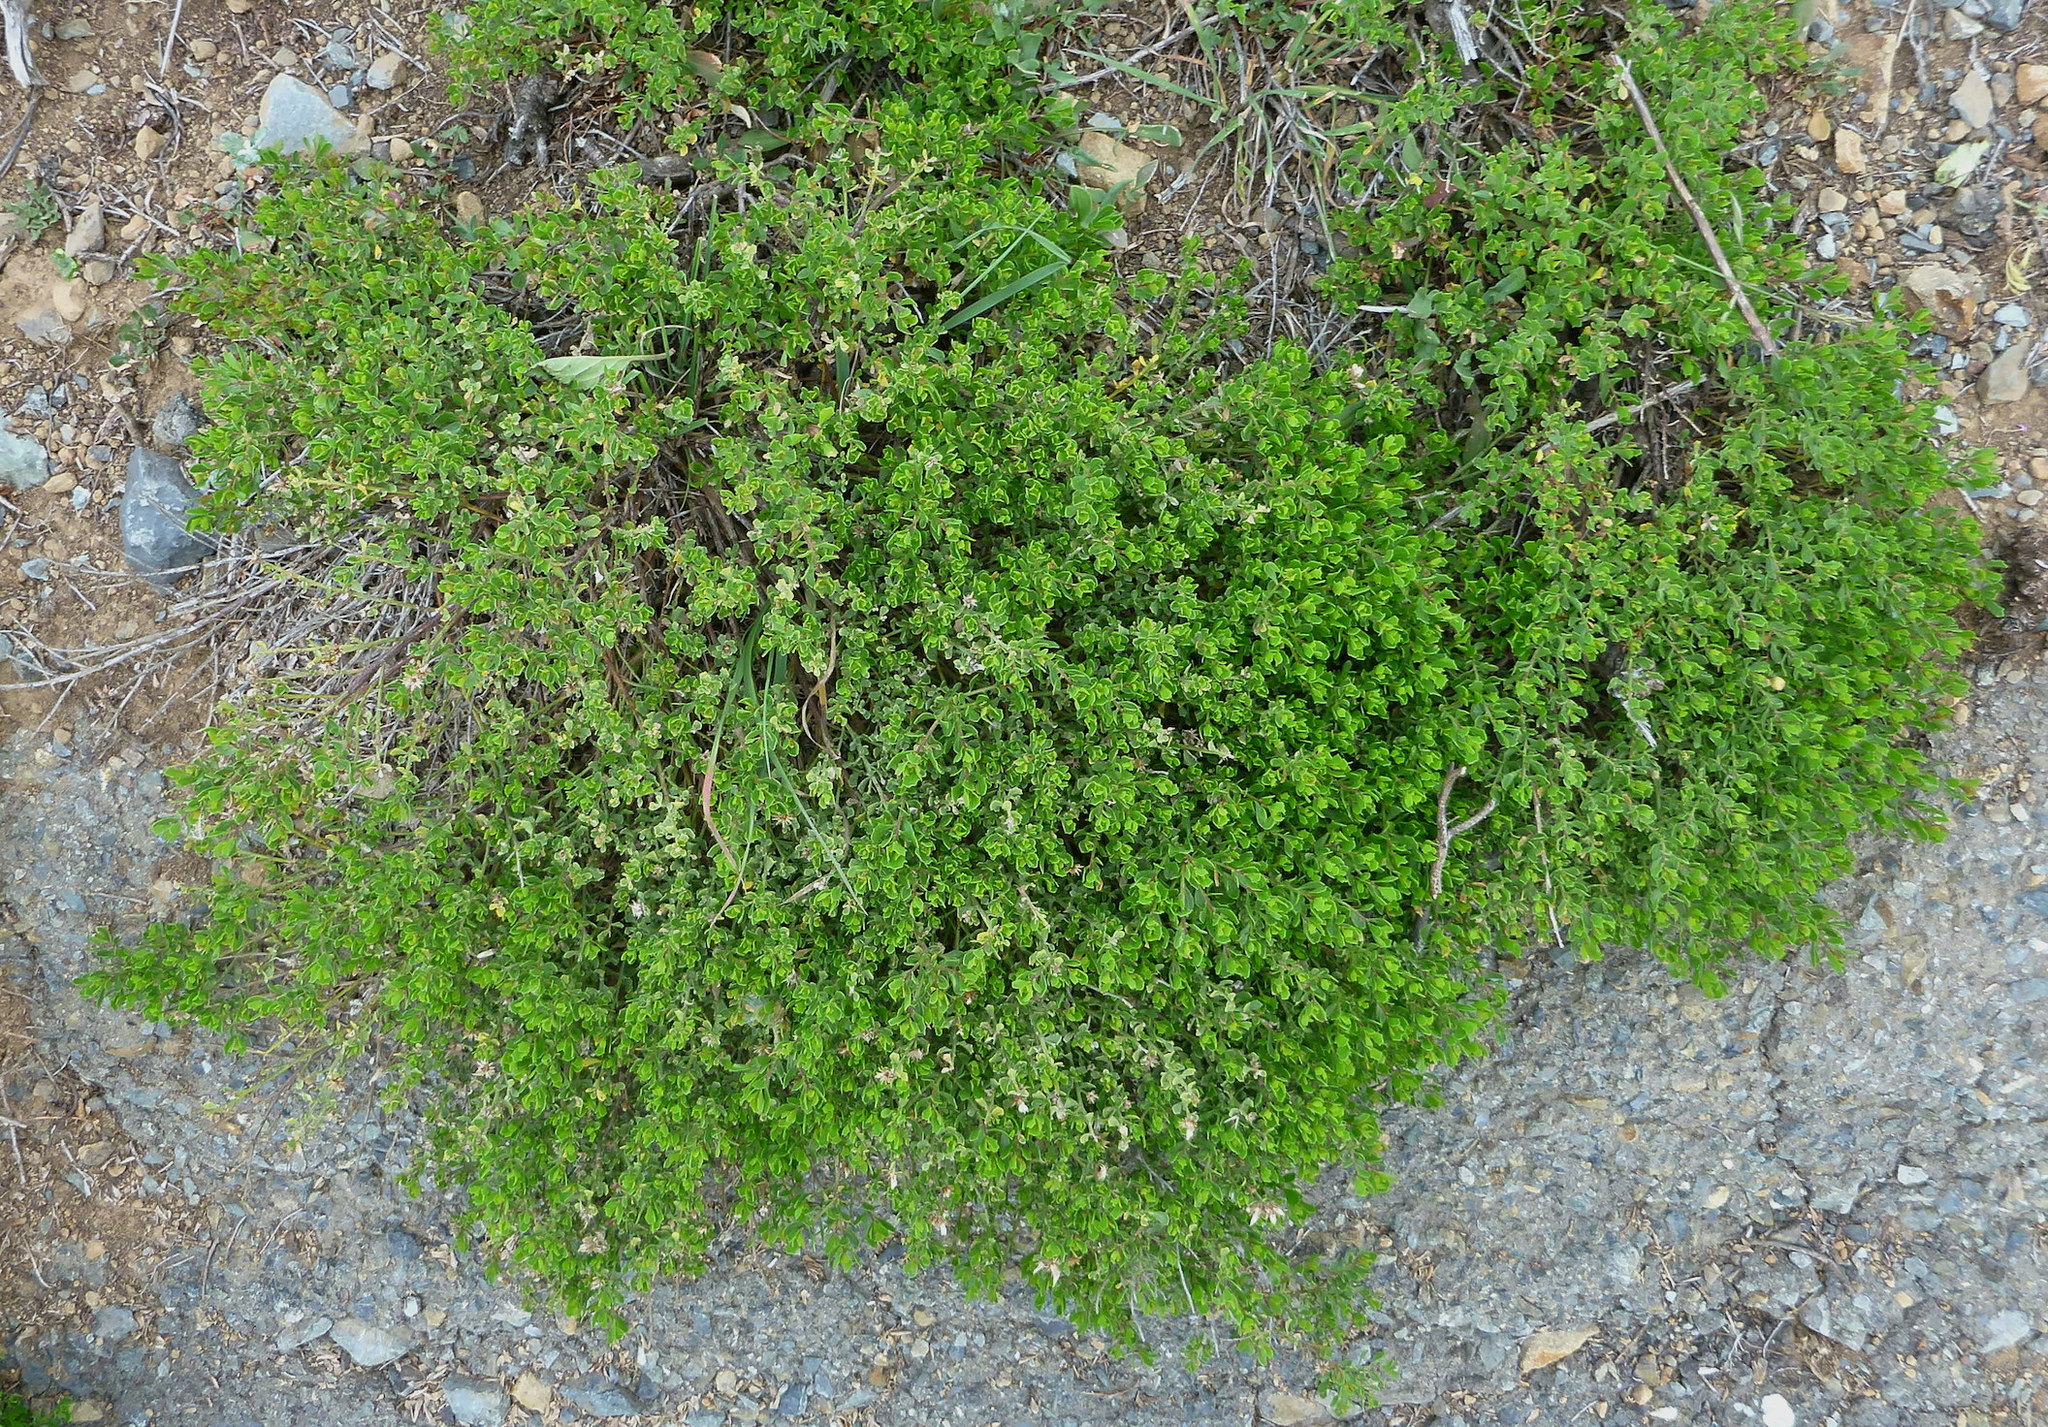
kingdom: Plantae
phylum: Tracheophyta
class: Magnoliopsida
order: Asterales
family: Asteraceae
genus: Baccharis
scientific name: Baccharis pilularis
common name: Coyotebrush
